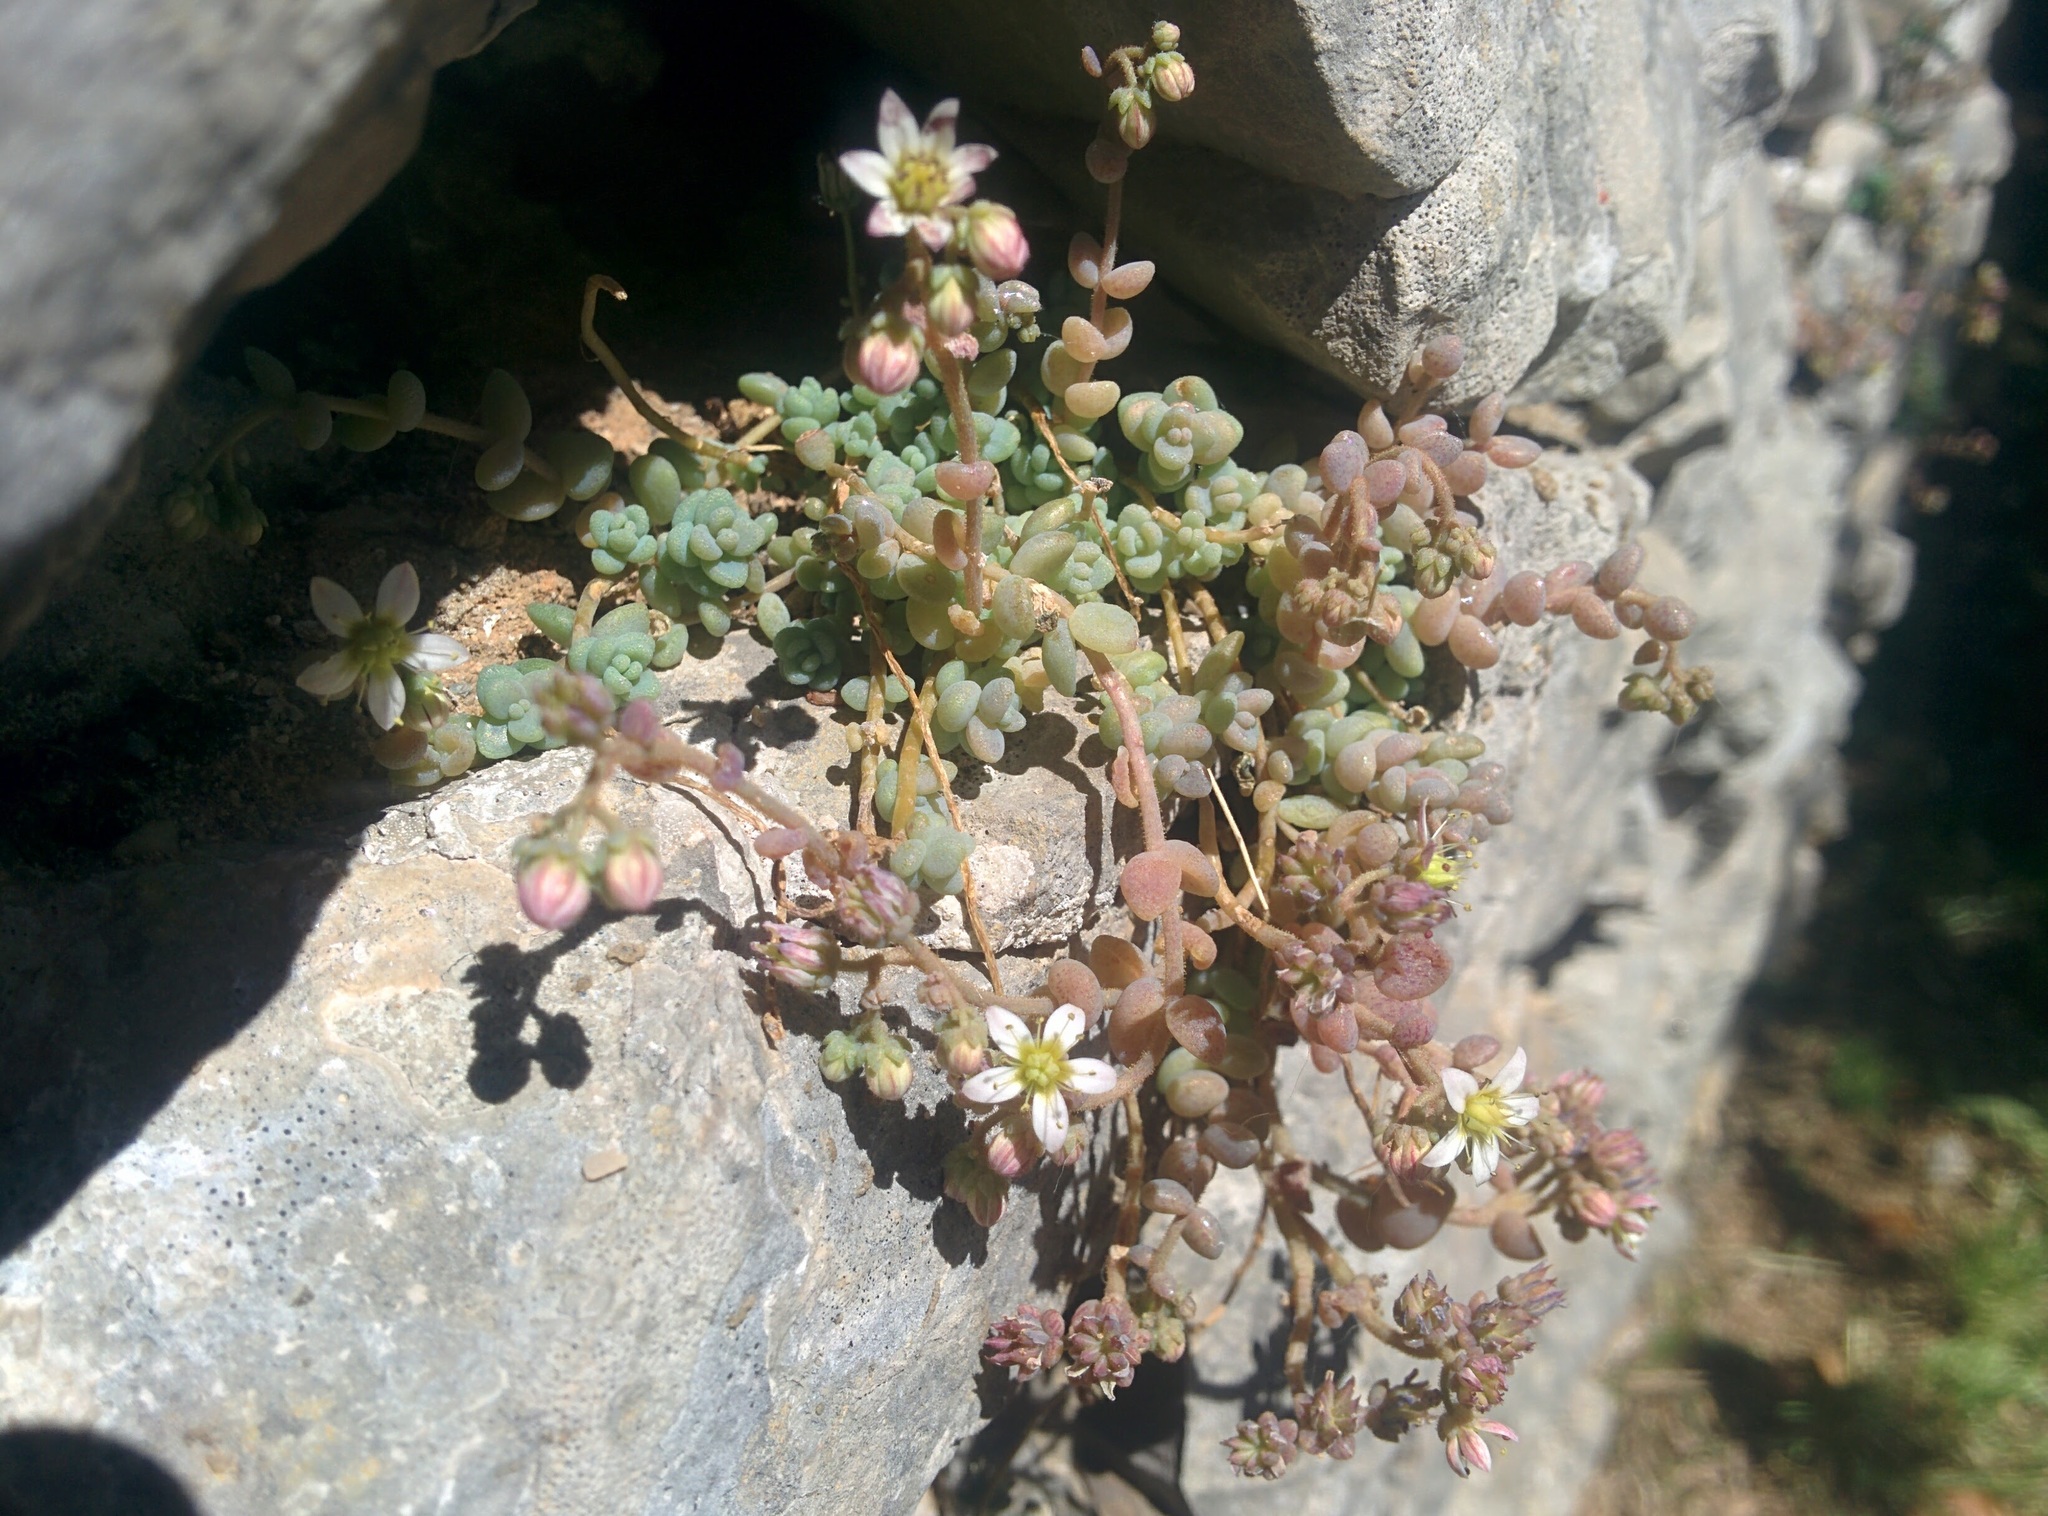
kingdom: Plantae
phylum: Tracheophyta
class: Magnoliopsida
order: Saxifragales
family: Crassulaceae
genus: Sedum
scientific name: Sedum dasyphyllum
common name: Thick-leaf stonecrop
